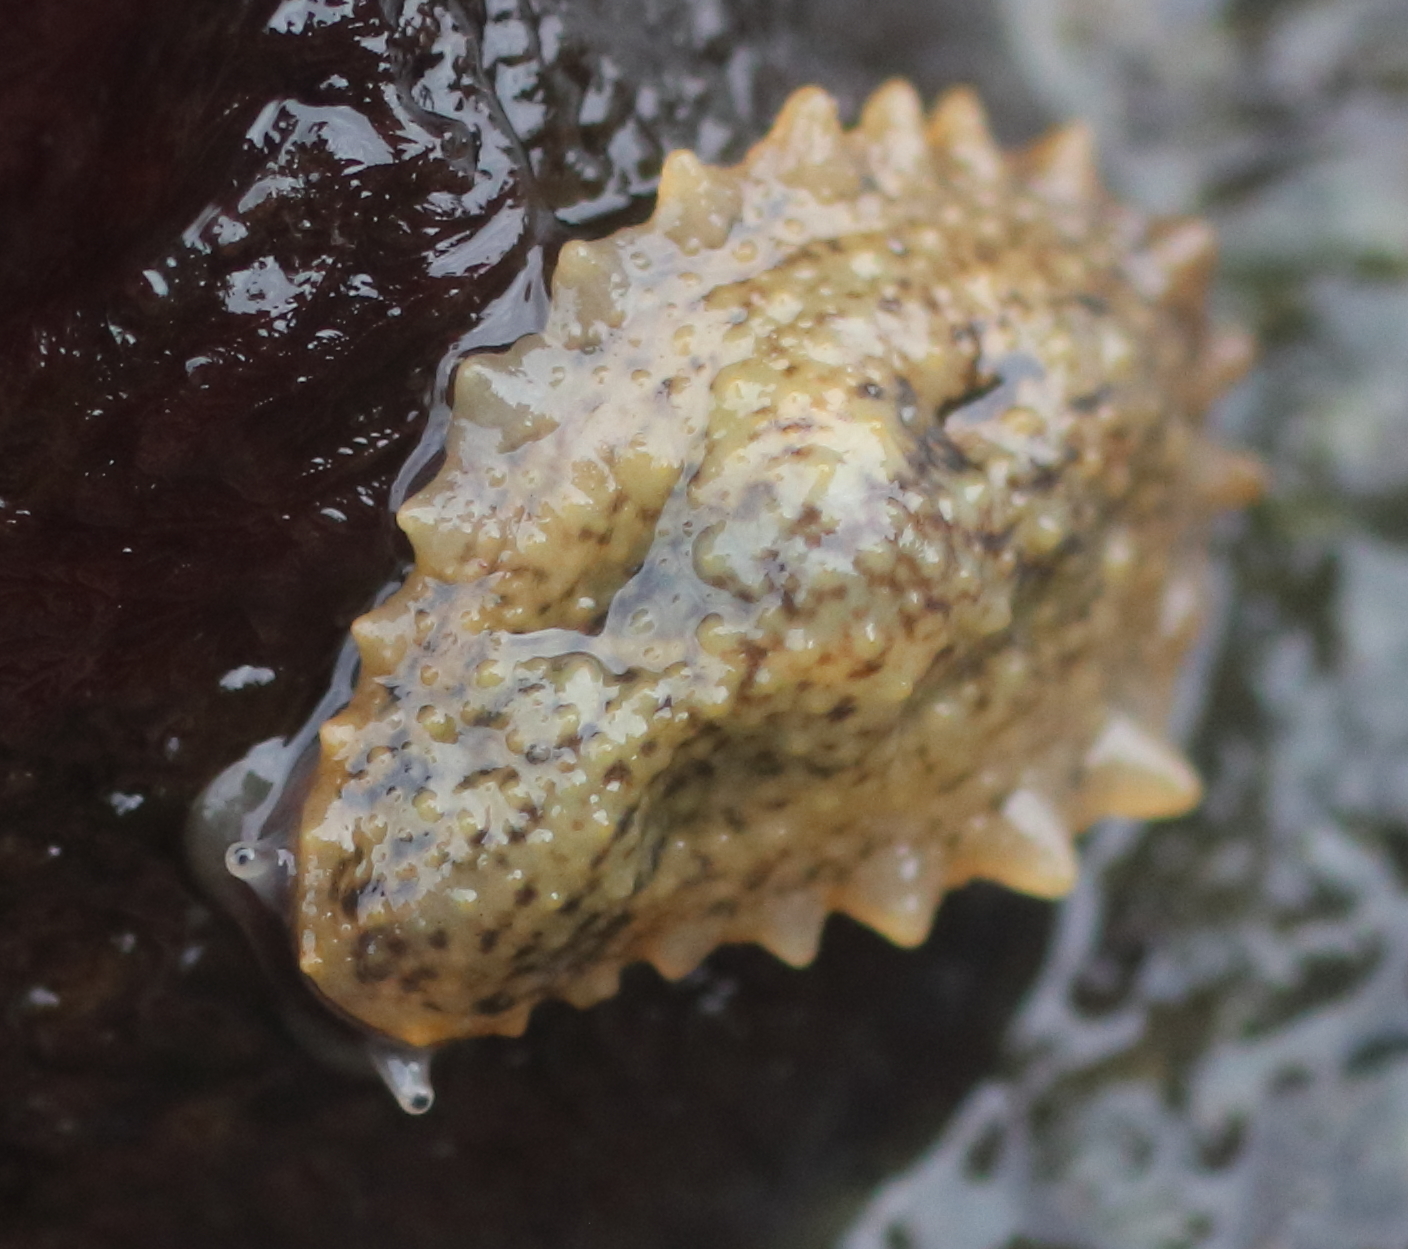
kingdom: Animalia
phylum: Mollusca
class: Gastropoda
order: Systellommatophora
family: Onchidiidae
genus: Onchidella
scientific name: Onchidella carpenteri
